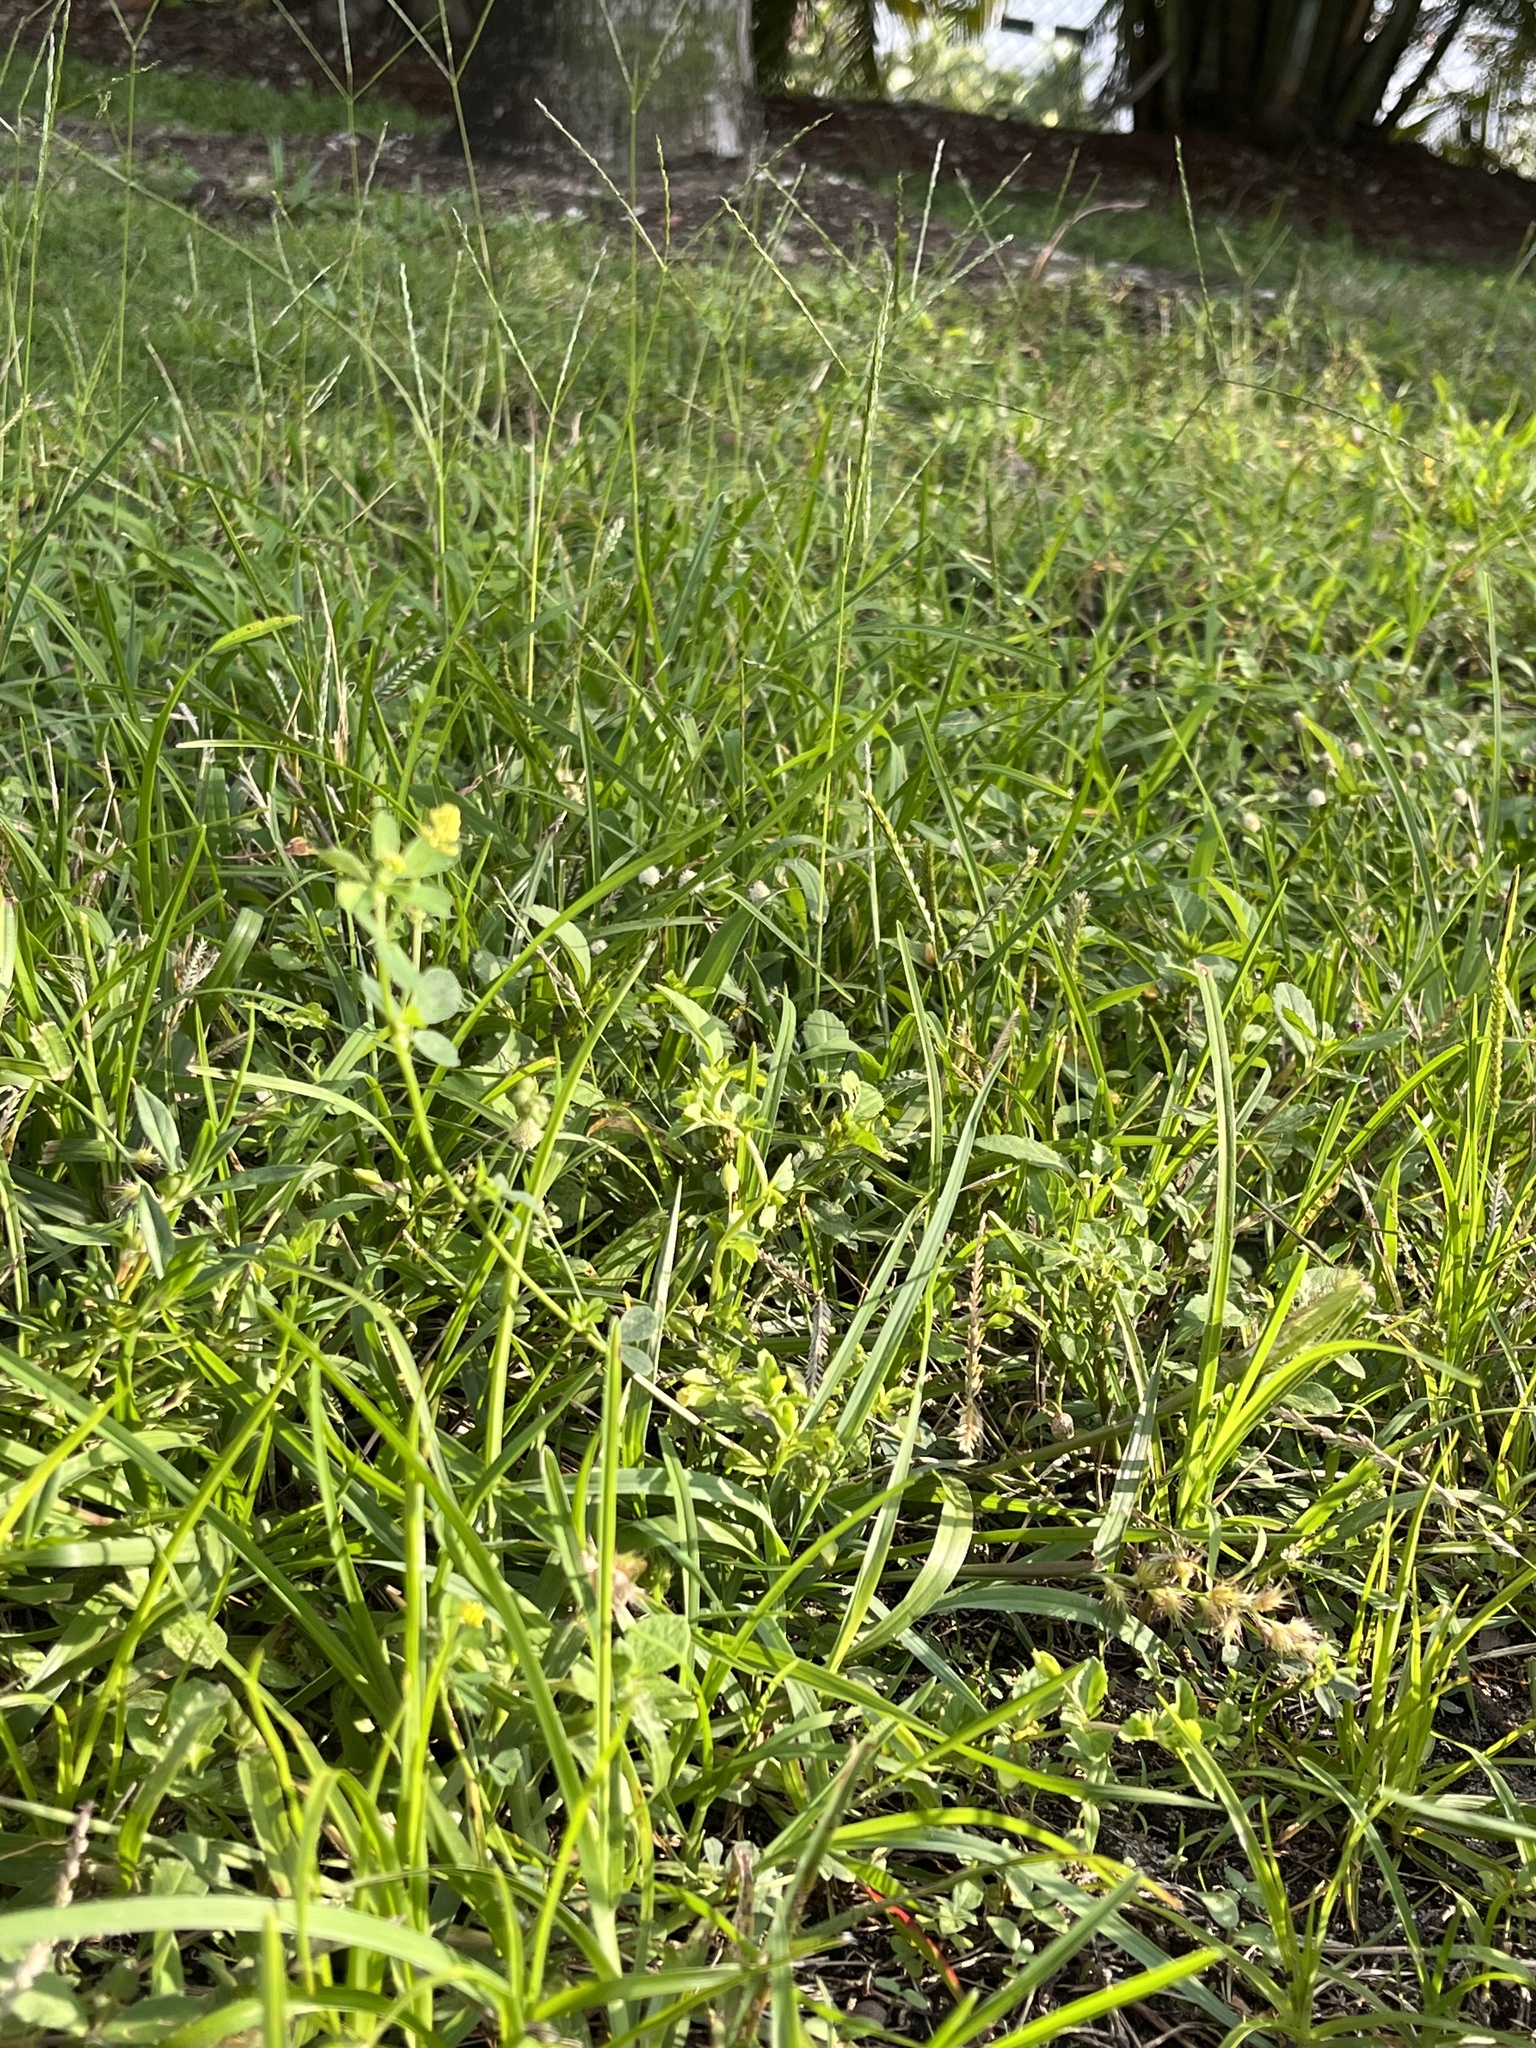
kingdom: Plantae
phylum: Tracheophyta
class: Magnoliopsida
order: Fabales
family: Fabaceae
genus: Medicago
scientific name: Medicago lupulina
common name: Black medick
